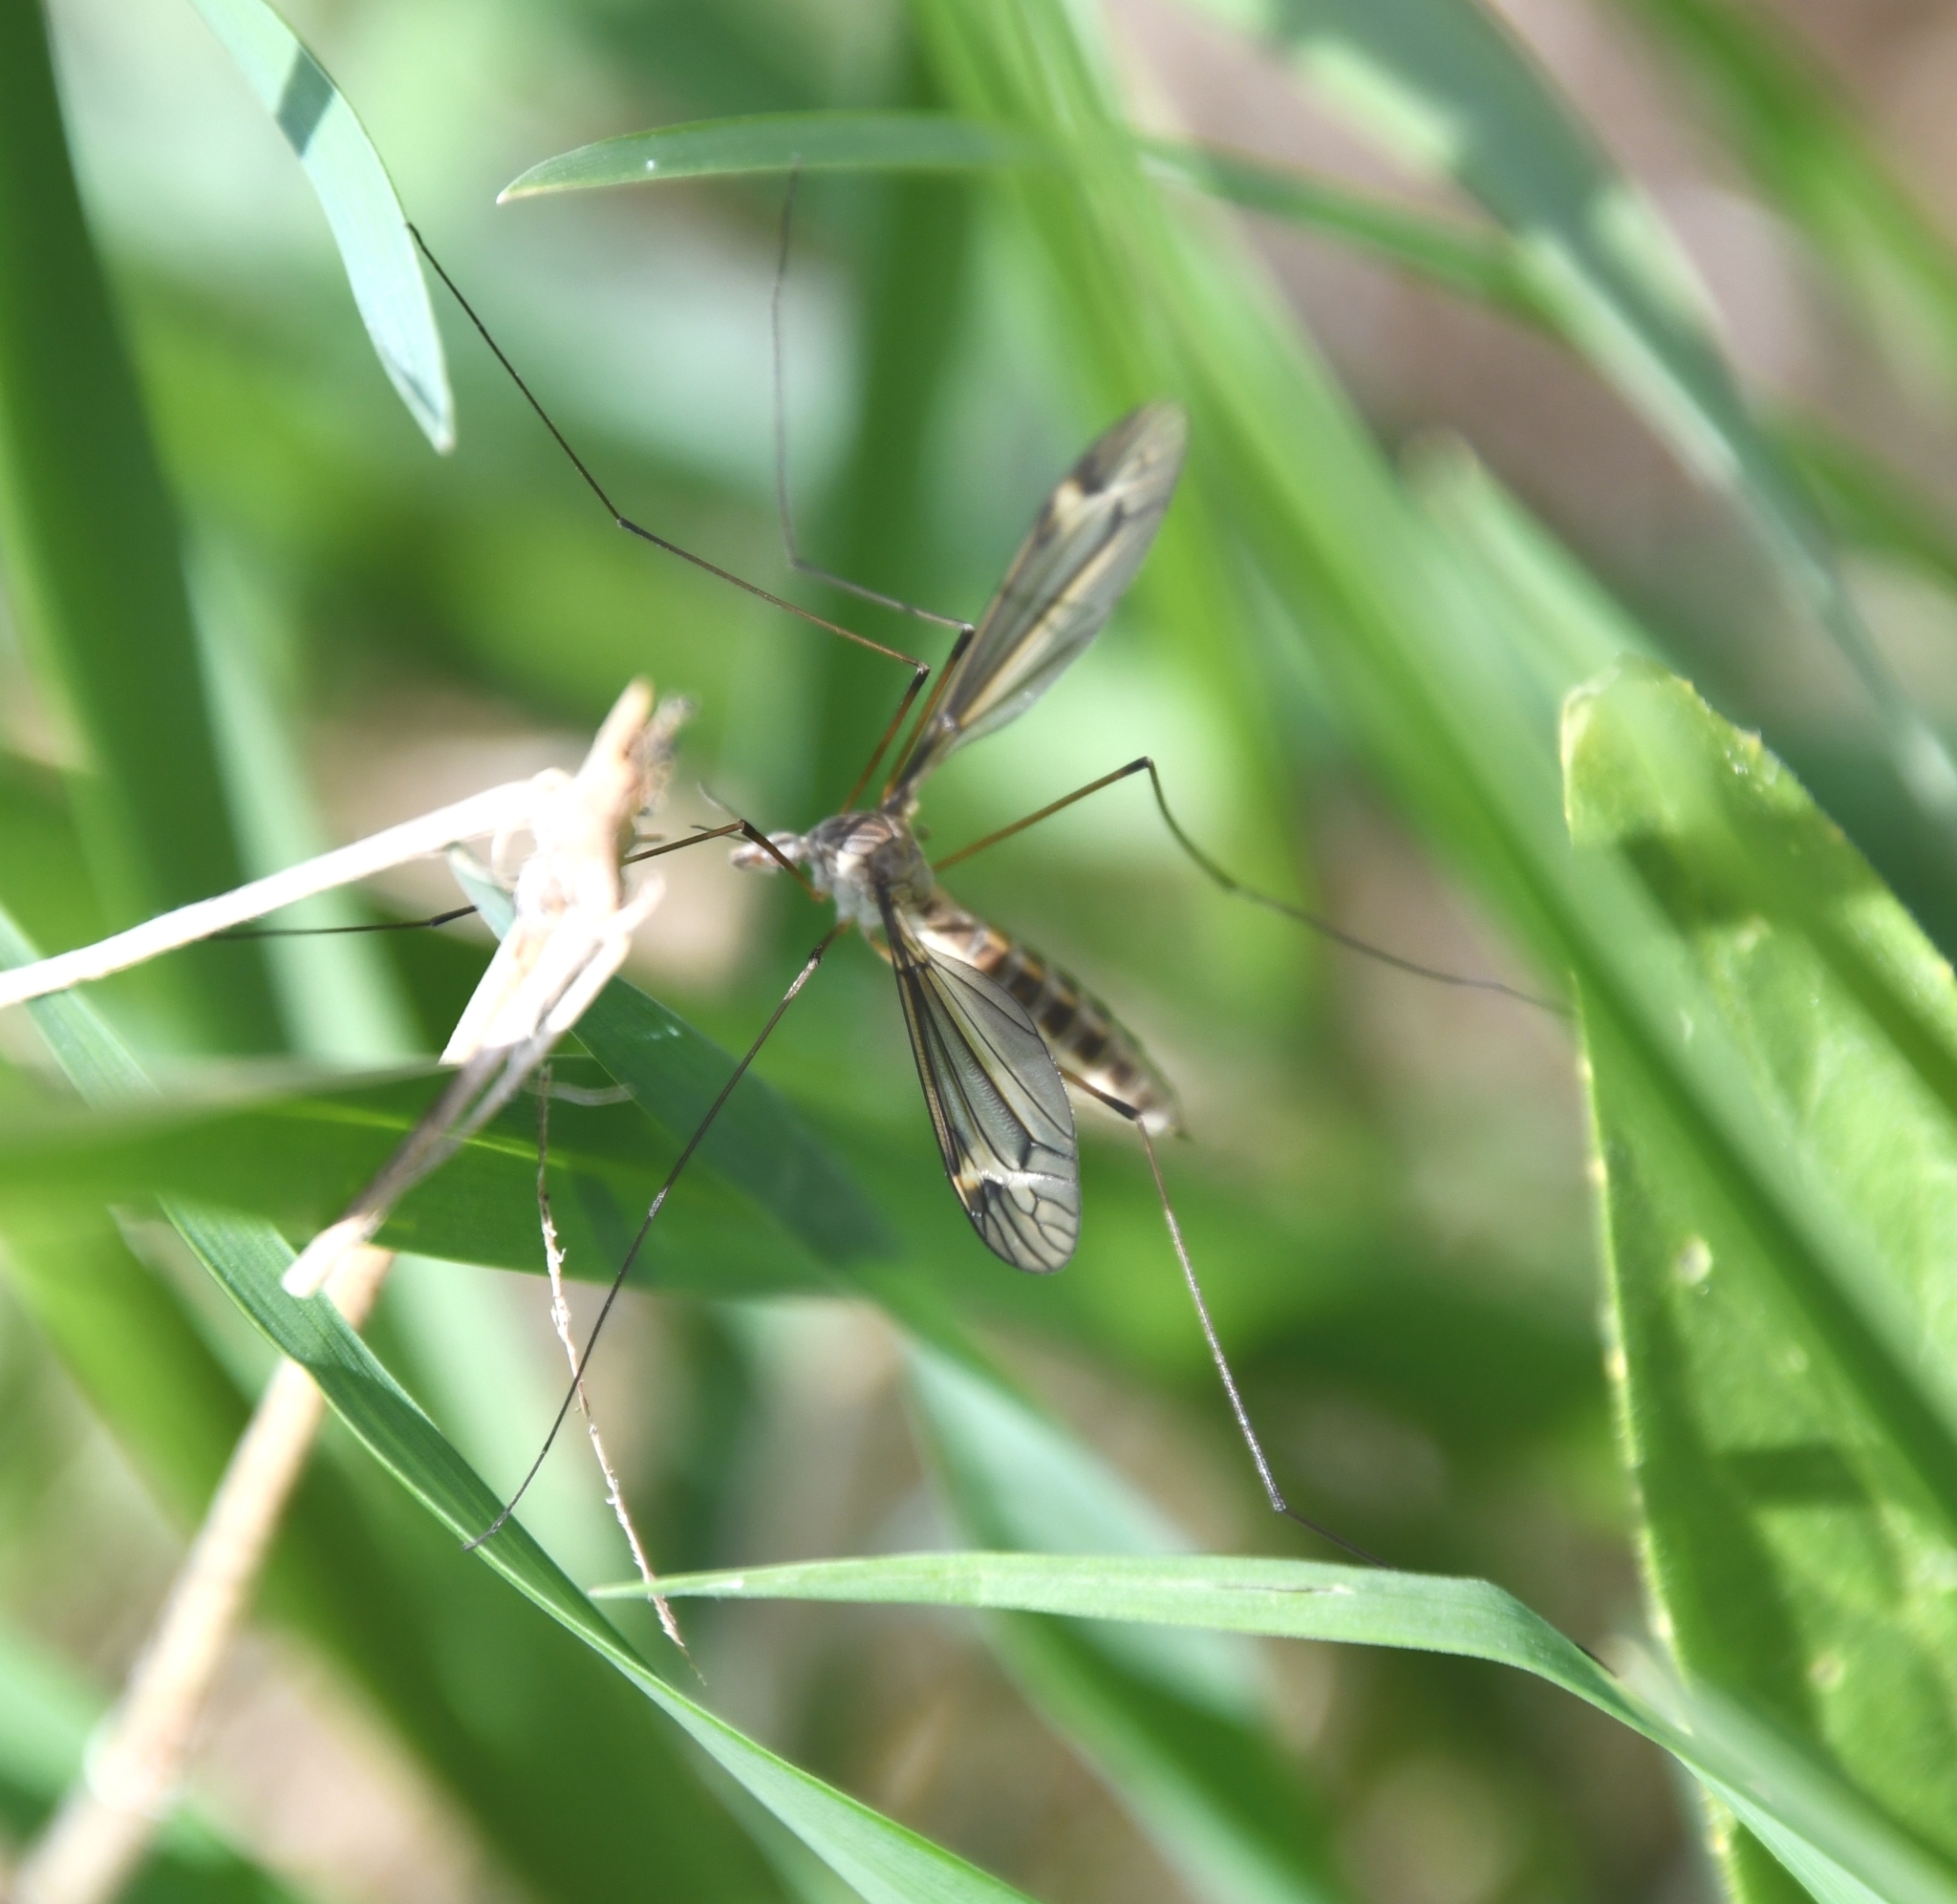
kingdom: Animalia
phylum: Arthropoda
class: Insecta
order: Diptera
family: Tipulidae
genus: Tipula
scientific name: Tipula vernalis
